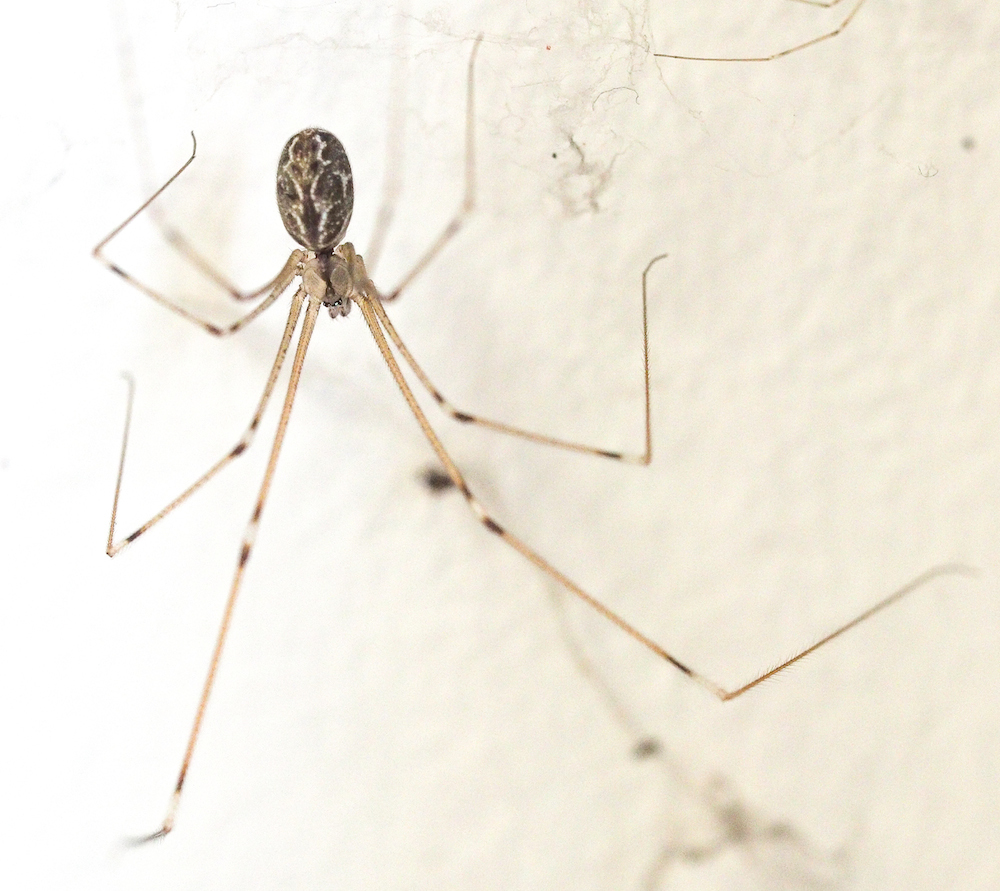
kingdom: Animalia
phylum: Arthropoda
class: Arachnida
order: Araneae
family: Pholcidae
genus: Holocnemus
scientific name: Holocnemus pluchei
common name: Marbled cellar spider
